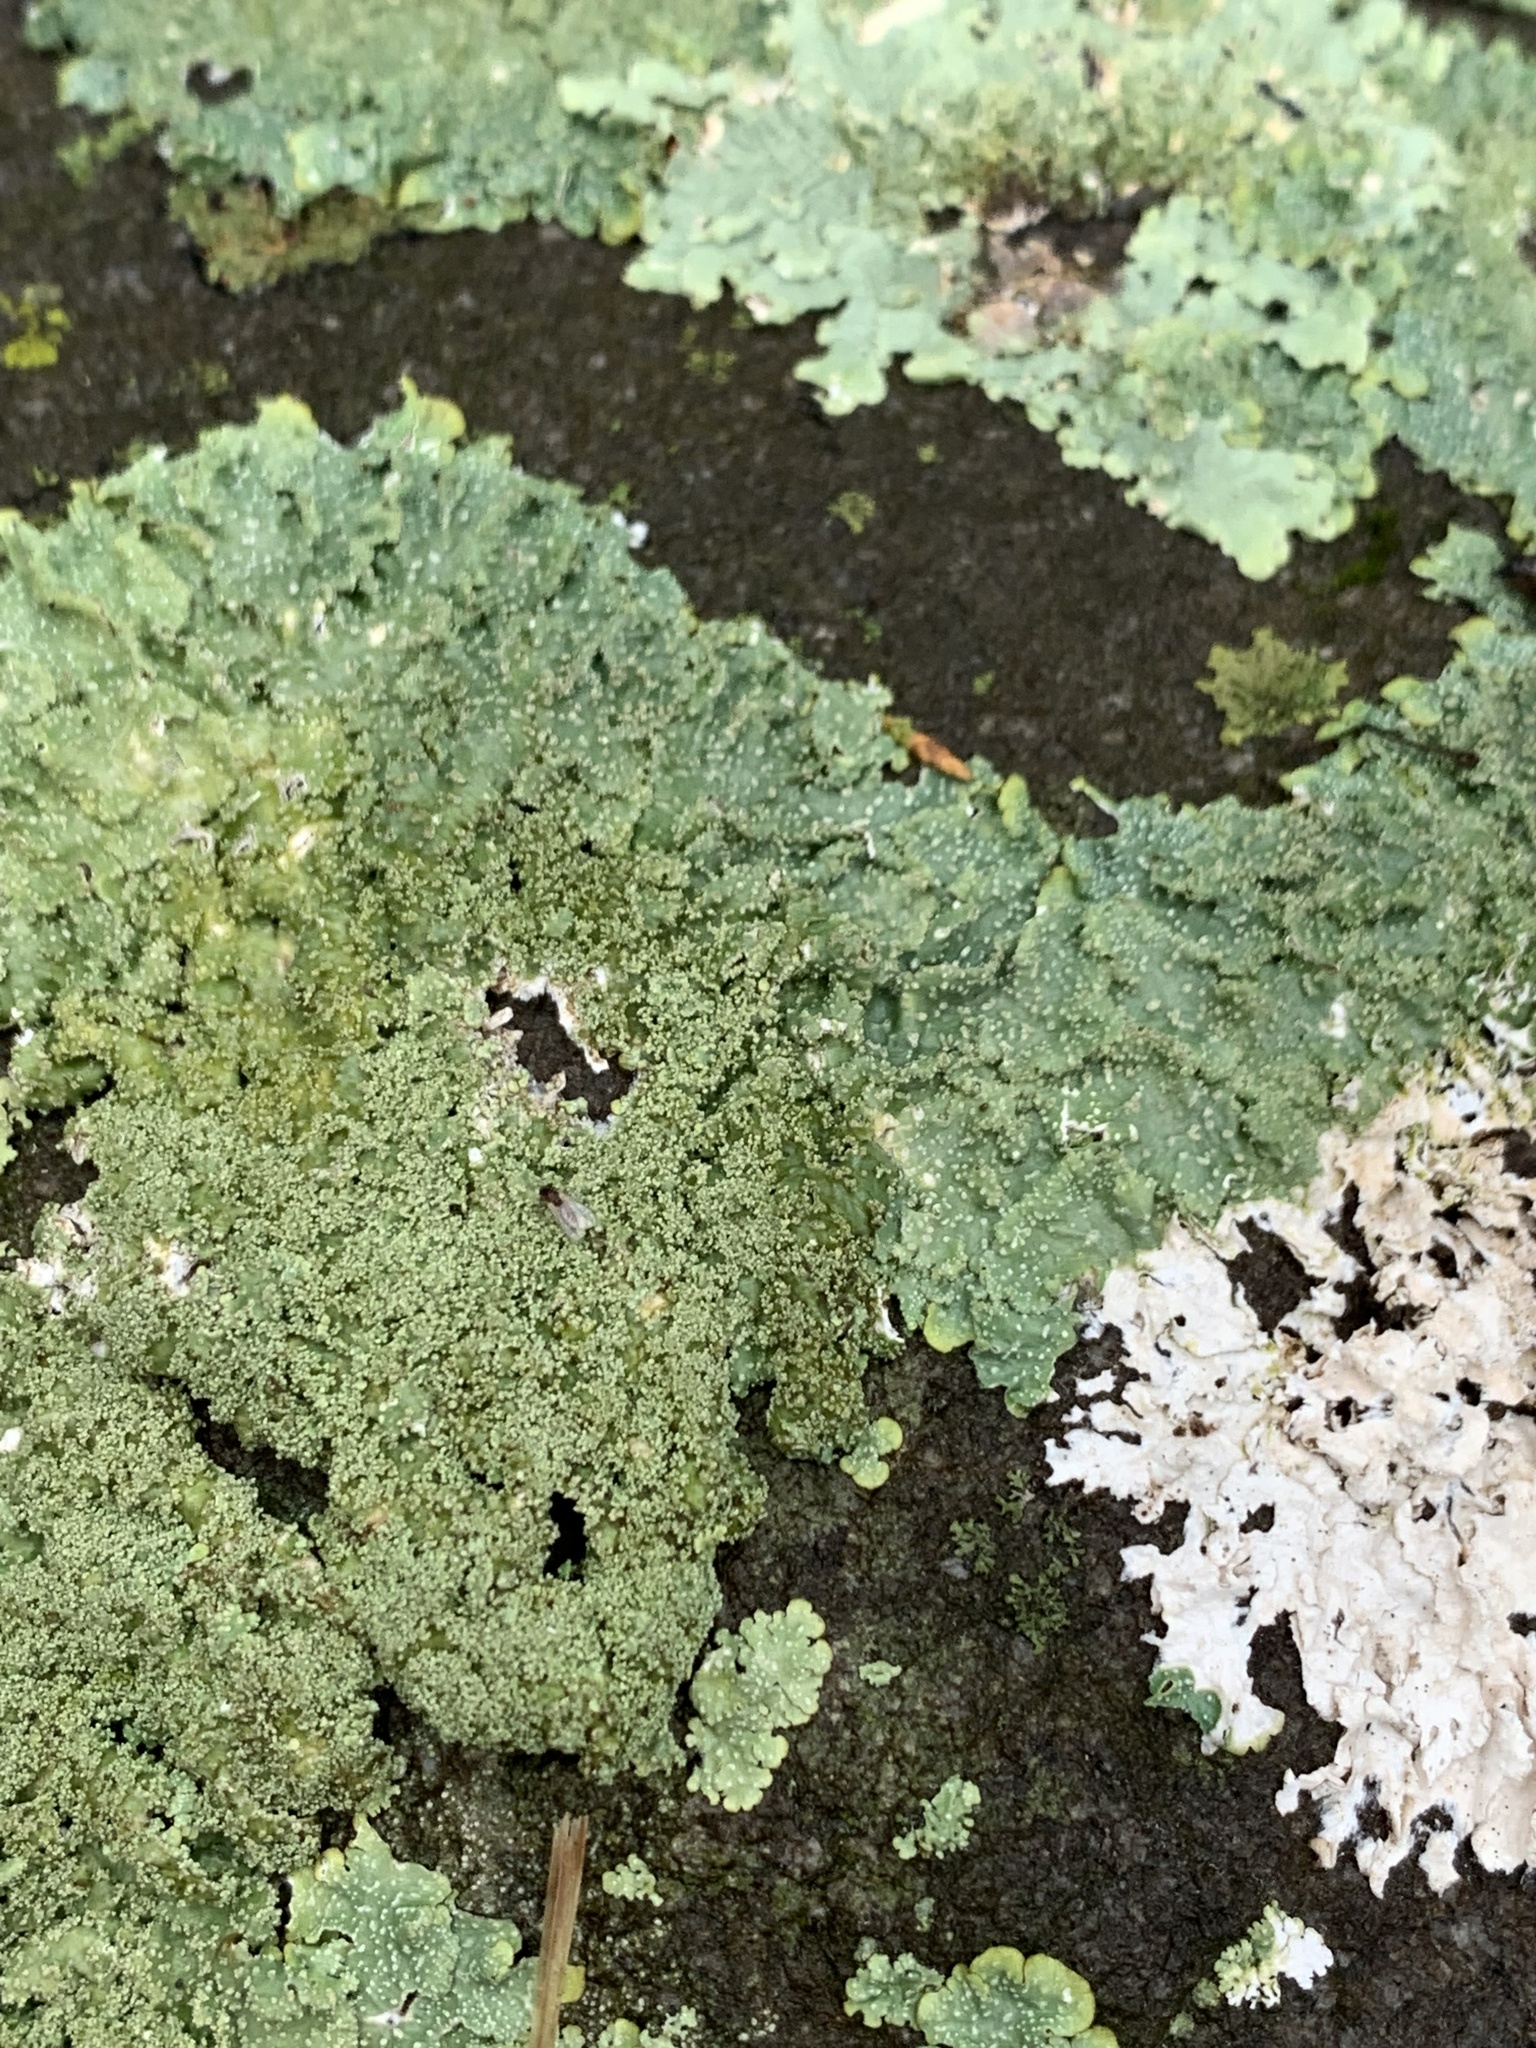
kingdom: Fungi
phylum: Ascomycota
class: Lecanoromycetes
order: Lecanorales
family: Parmeliaceae
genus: Flavoparmelia
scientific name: Flavoparmelia baltimorensis
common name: Rock greenshield
